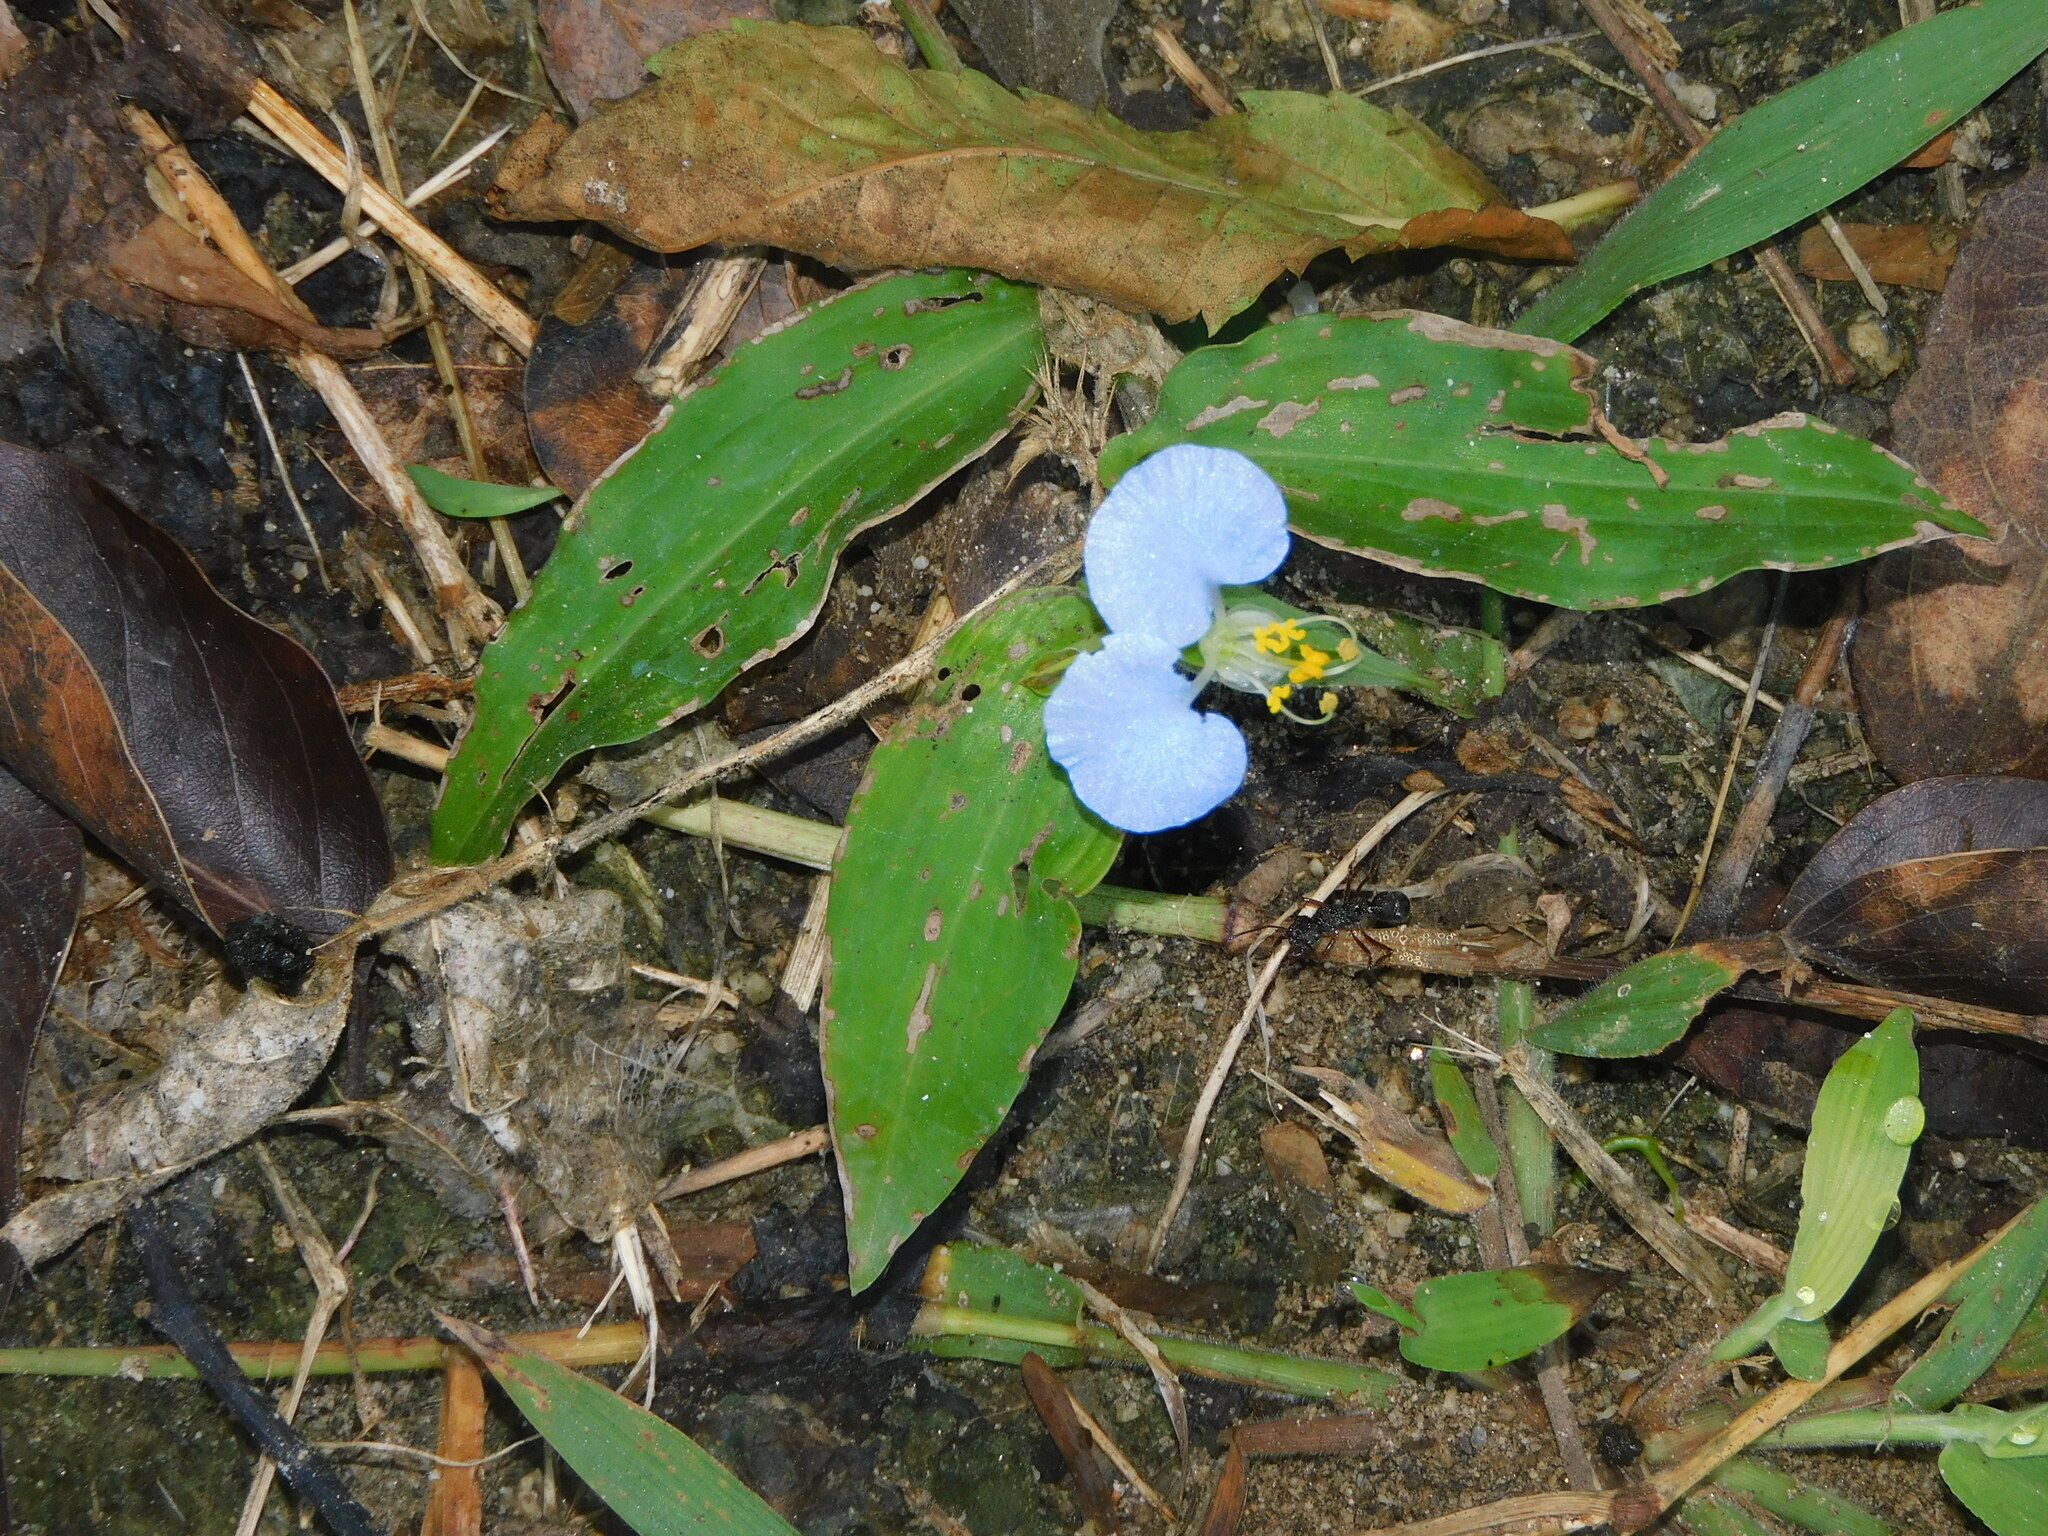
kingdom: Plantae
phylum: Tracheophyta
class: Liliopsida
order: Commelinales
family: Commelinaceae
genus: Commelina
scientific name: Commelina erecta
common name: Blousel blommetjie
